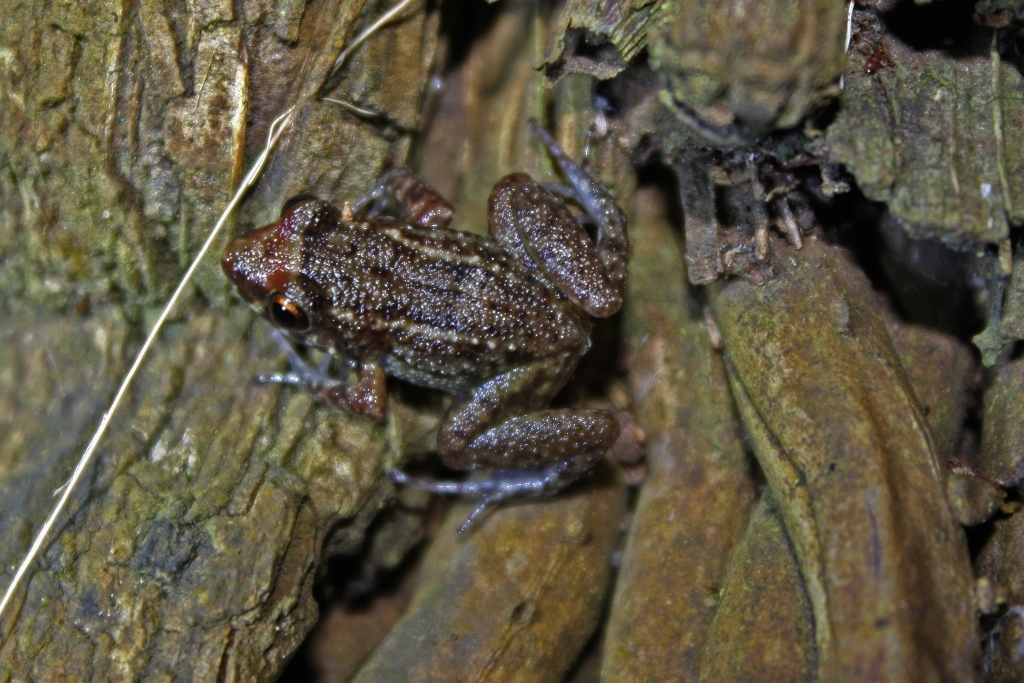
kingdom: Animalia
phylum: Chordata
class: Amphibia
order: Anura
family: Eleutherodactylidae
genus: Eleutherodactylus
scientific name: Eleutherodactylus planirostris
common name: Greenhouse frog
